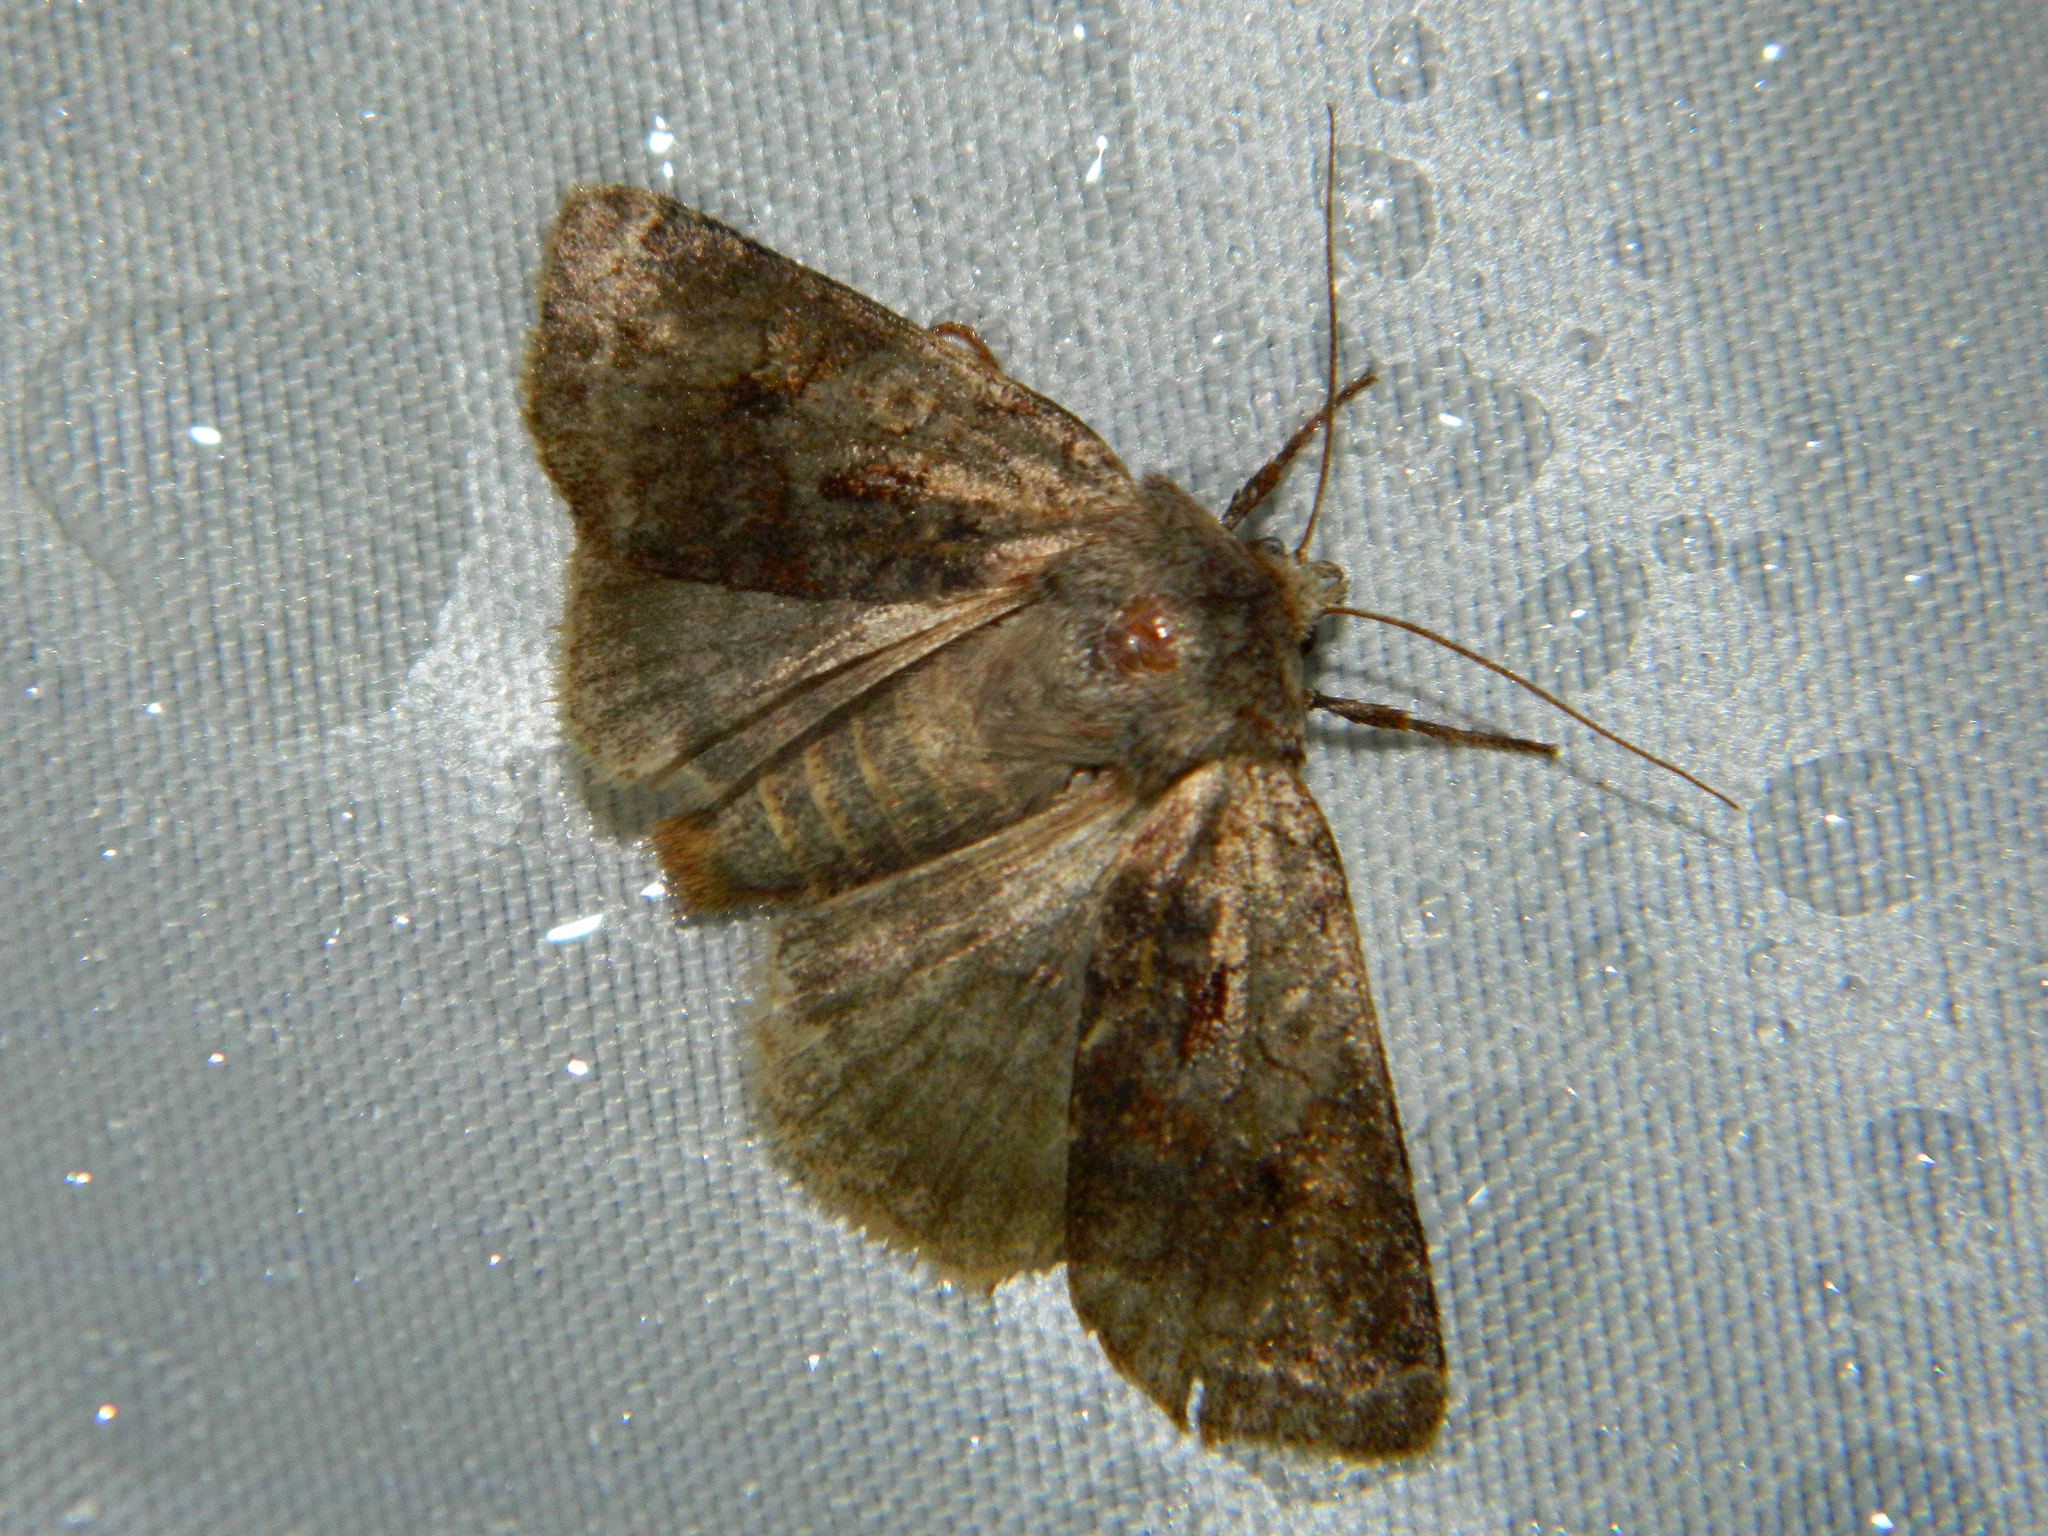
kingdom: Animalia
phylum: Arthropoda
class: Insecta
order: Lepidoptera
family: Noctuidae
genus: Cerastis
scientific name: Cerastis salicarum
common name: Willow dart
